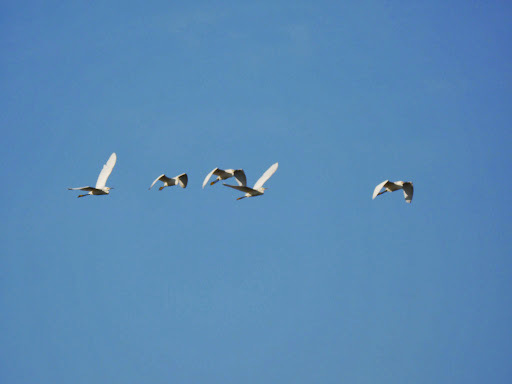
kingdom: Animalia
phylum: Chordata
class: Aves
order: Pelecaniformes
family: Ardeidae
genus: Egretta
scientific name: Egretta thula
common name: Snowy egret
